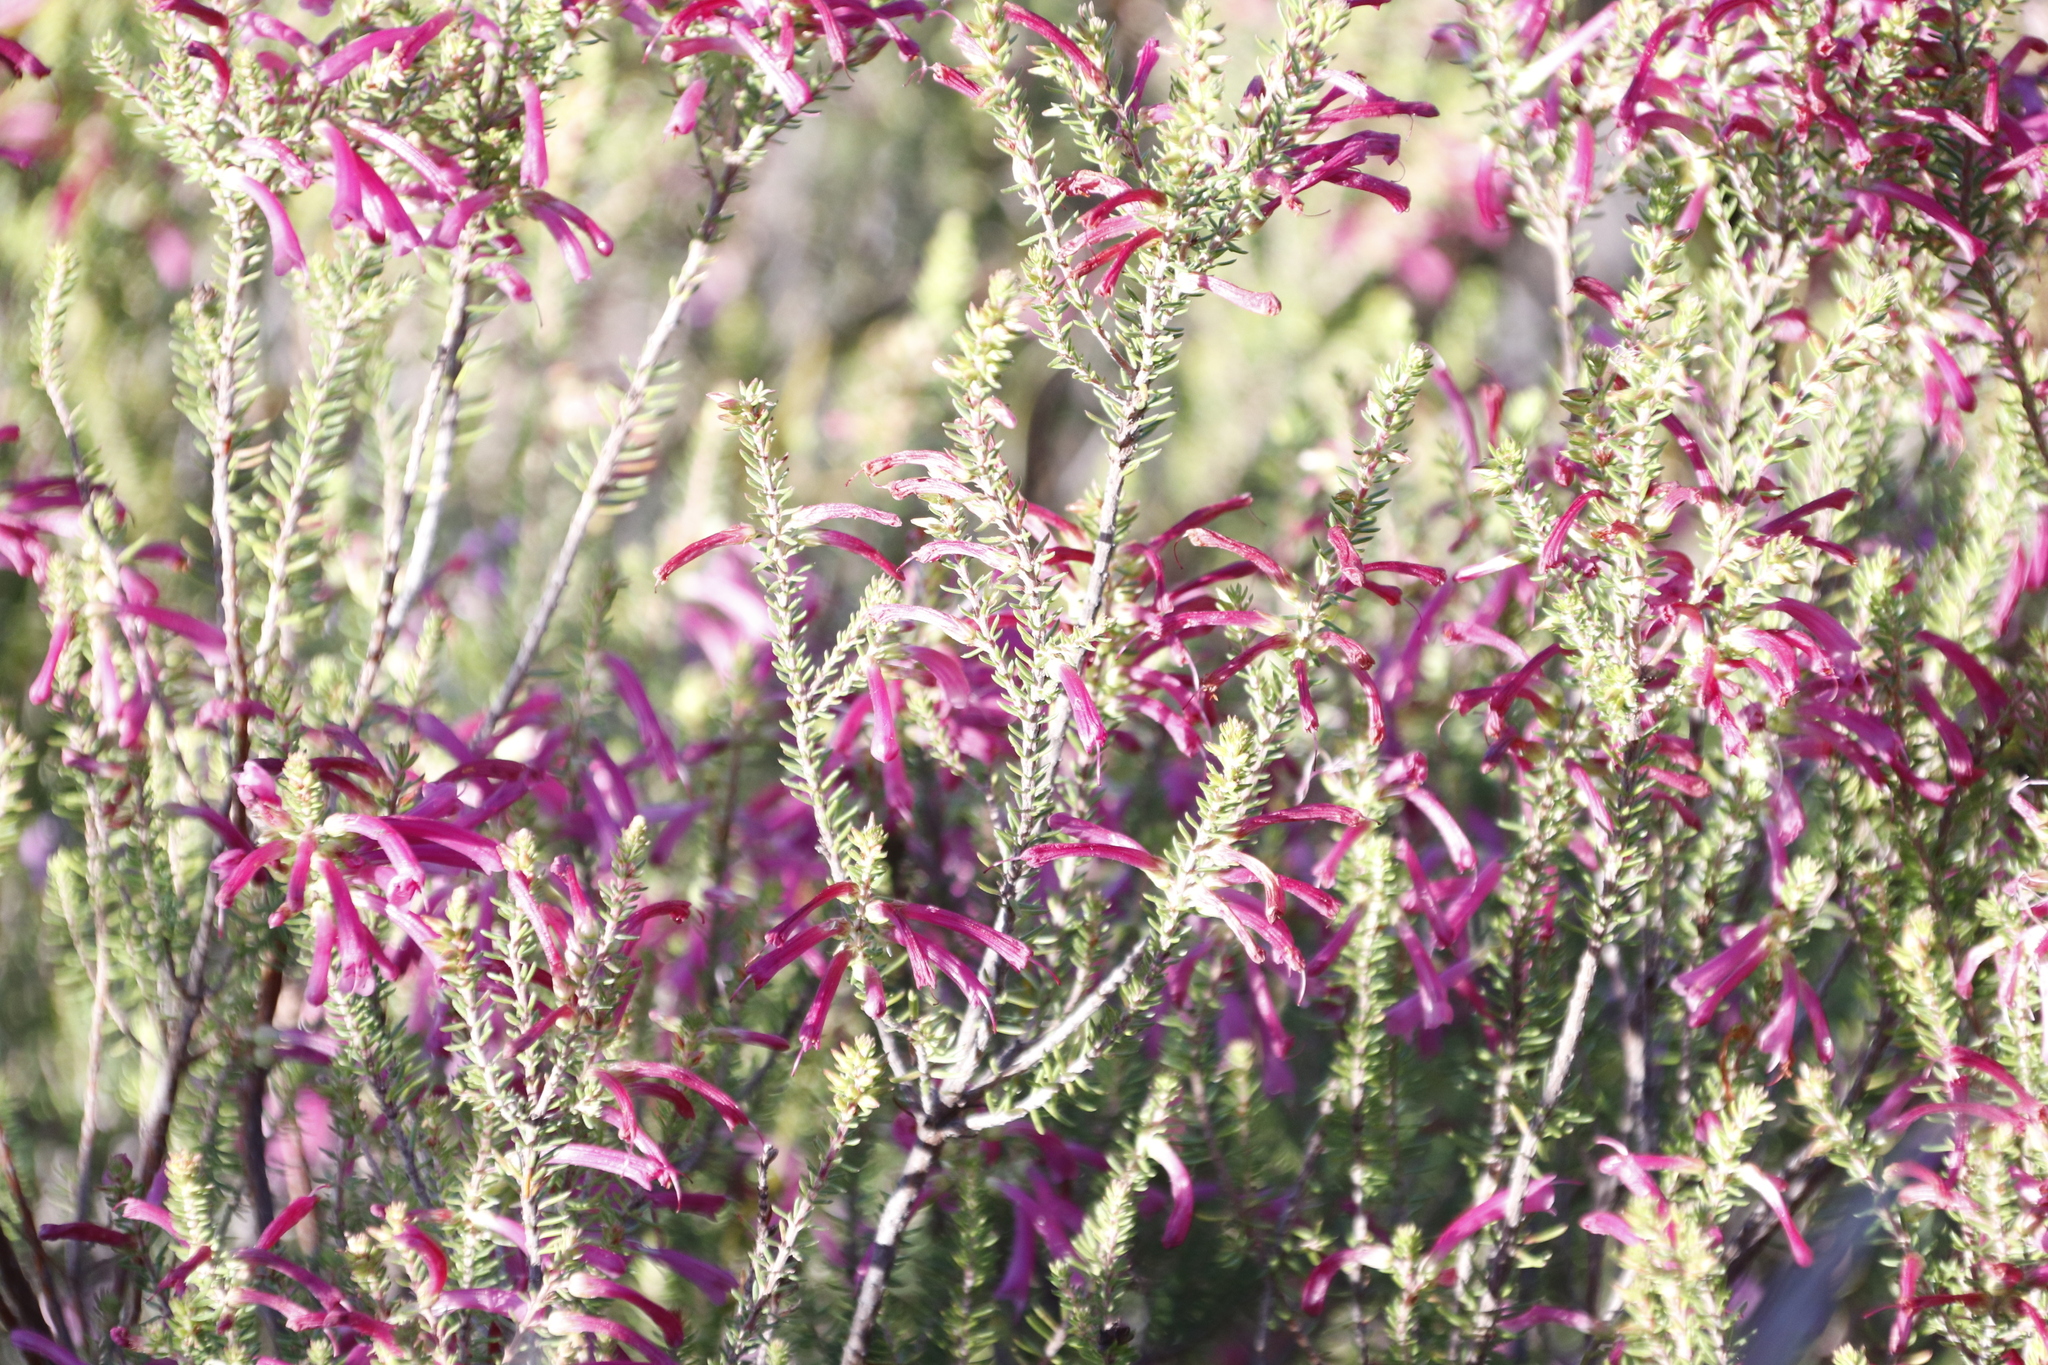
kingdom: Plantae
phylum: Tracheophyta
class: Magnoliopsida
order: Ericales
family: Ericaceae
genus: Erica
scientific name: Erica abietina
